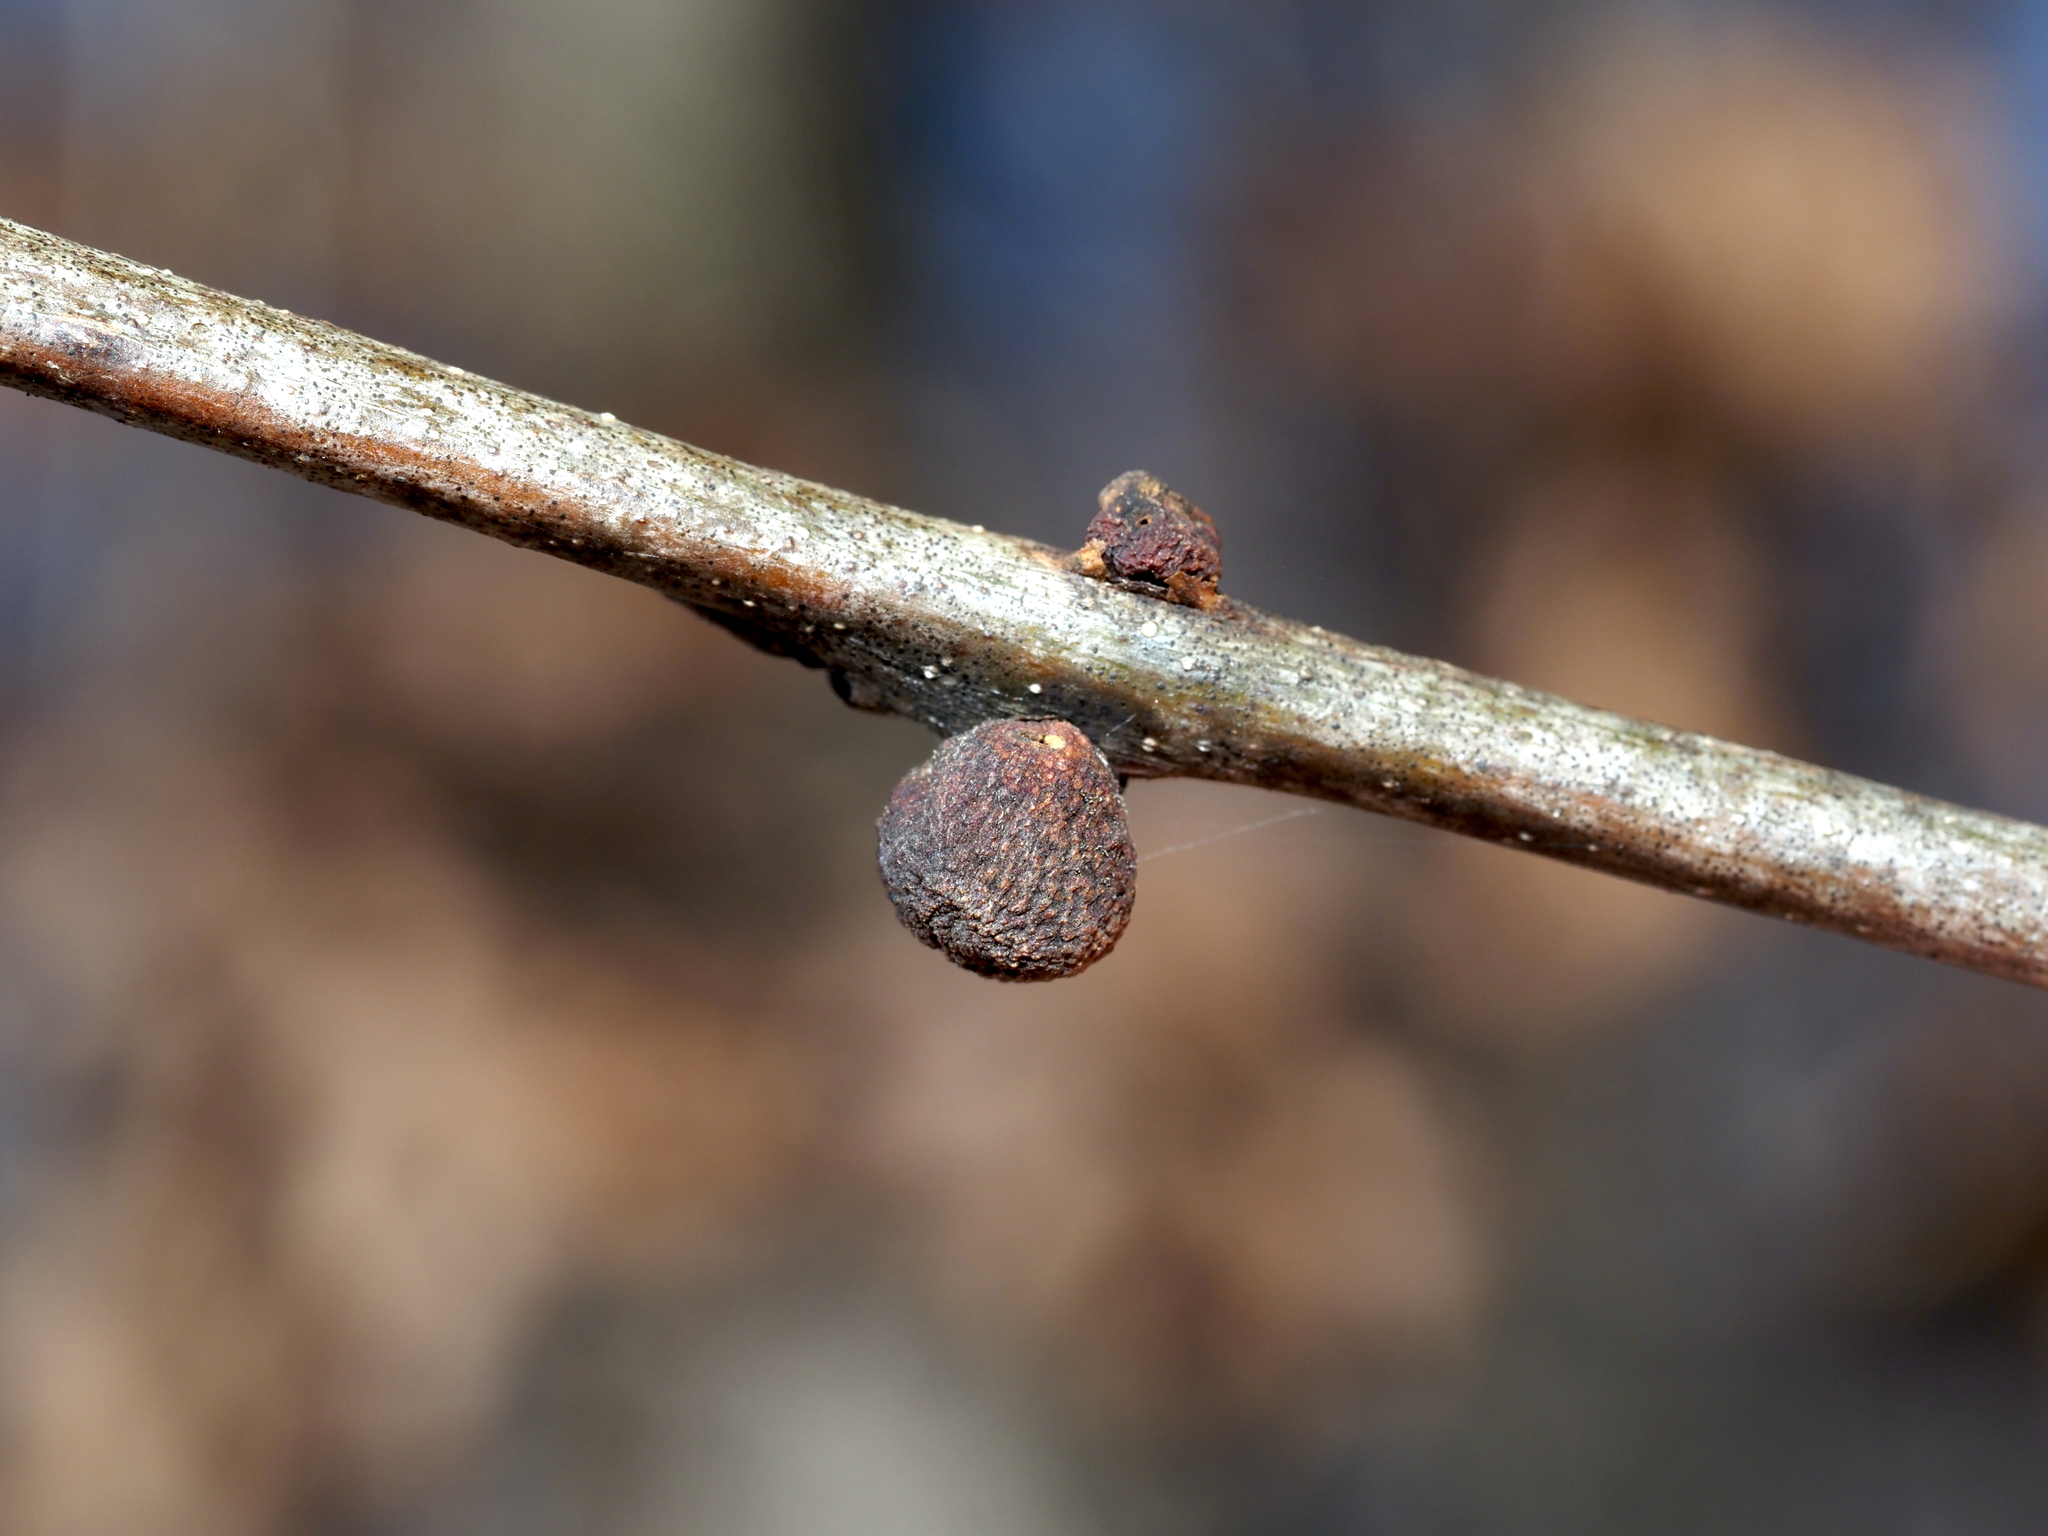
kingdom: Animalia
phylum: Arthropoda
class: Insecta
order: Hymenoptera
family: Cynipidae
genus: Kokkocynips
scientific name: Kokkocynips imbricariae
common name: Banded bullet gall wasp
